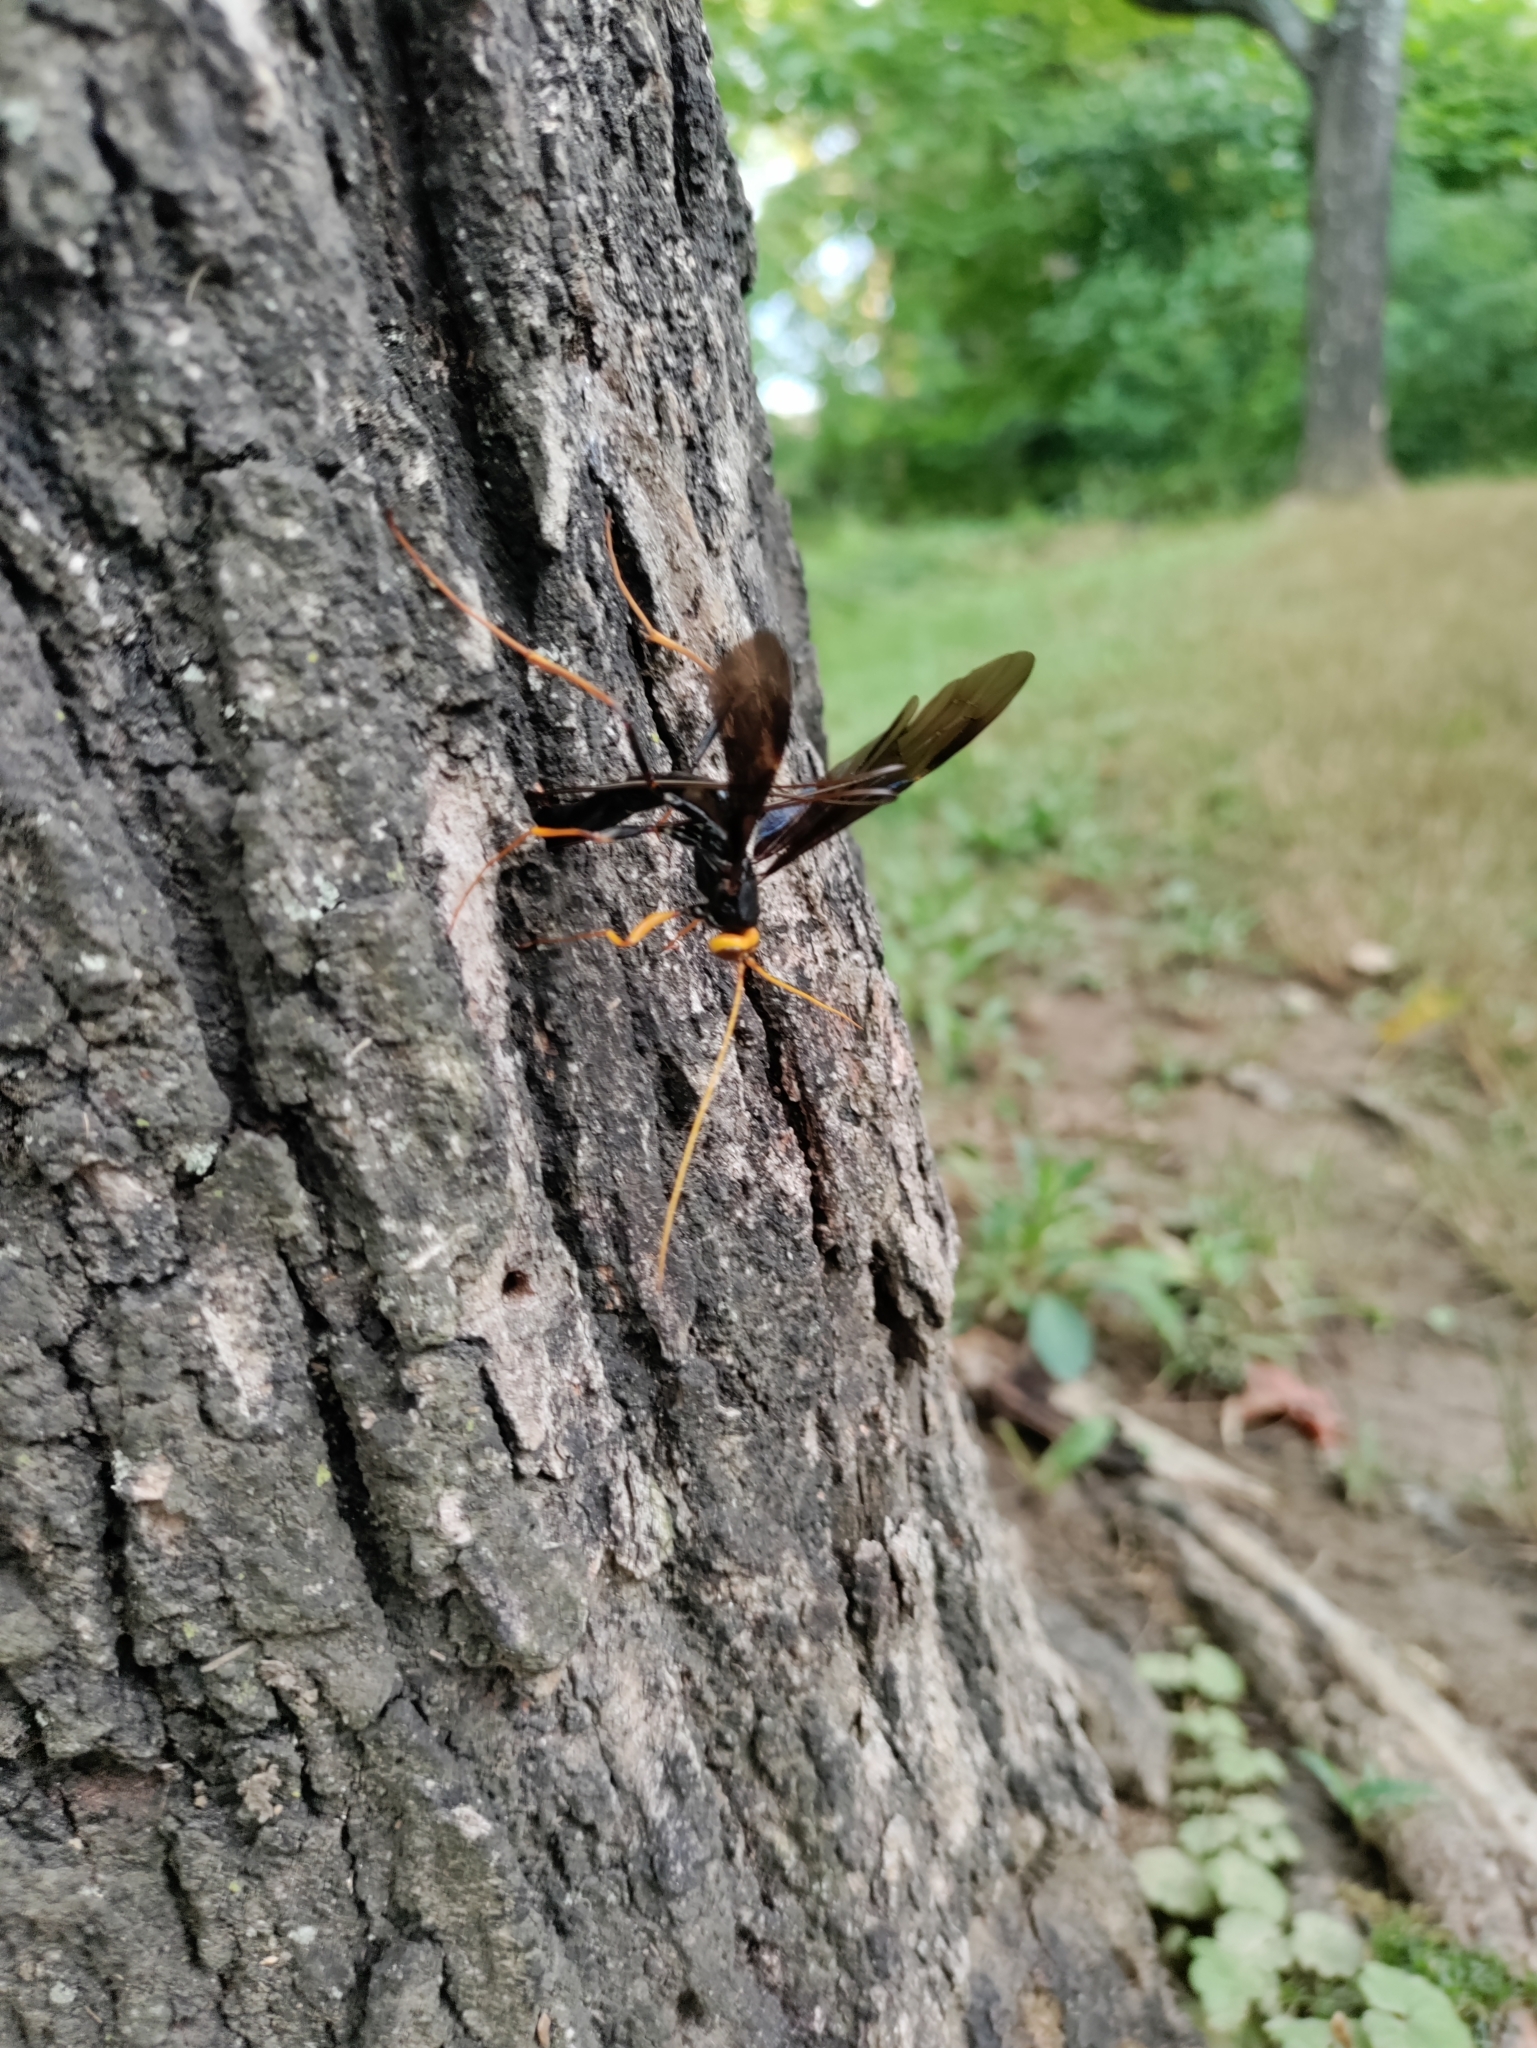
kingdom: Animalia
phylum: Arthropoda
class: Insecta
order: Hymenoptera
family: Ichneumonidae
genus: Megarhyssa
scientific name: Megarhyssa atrata
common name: Black giant ichneumonid wasp
